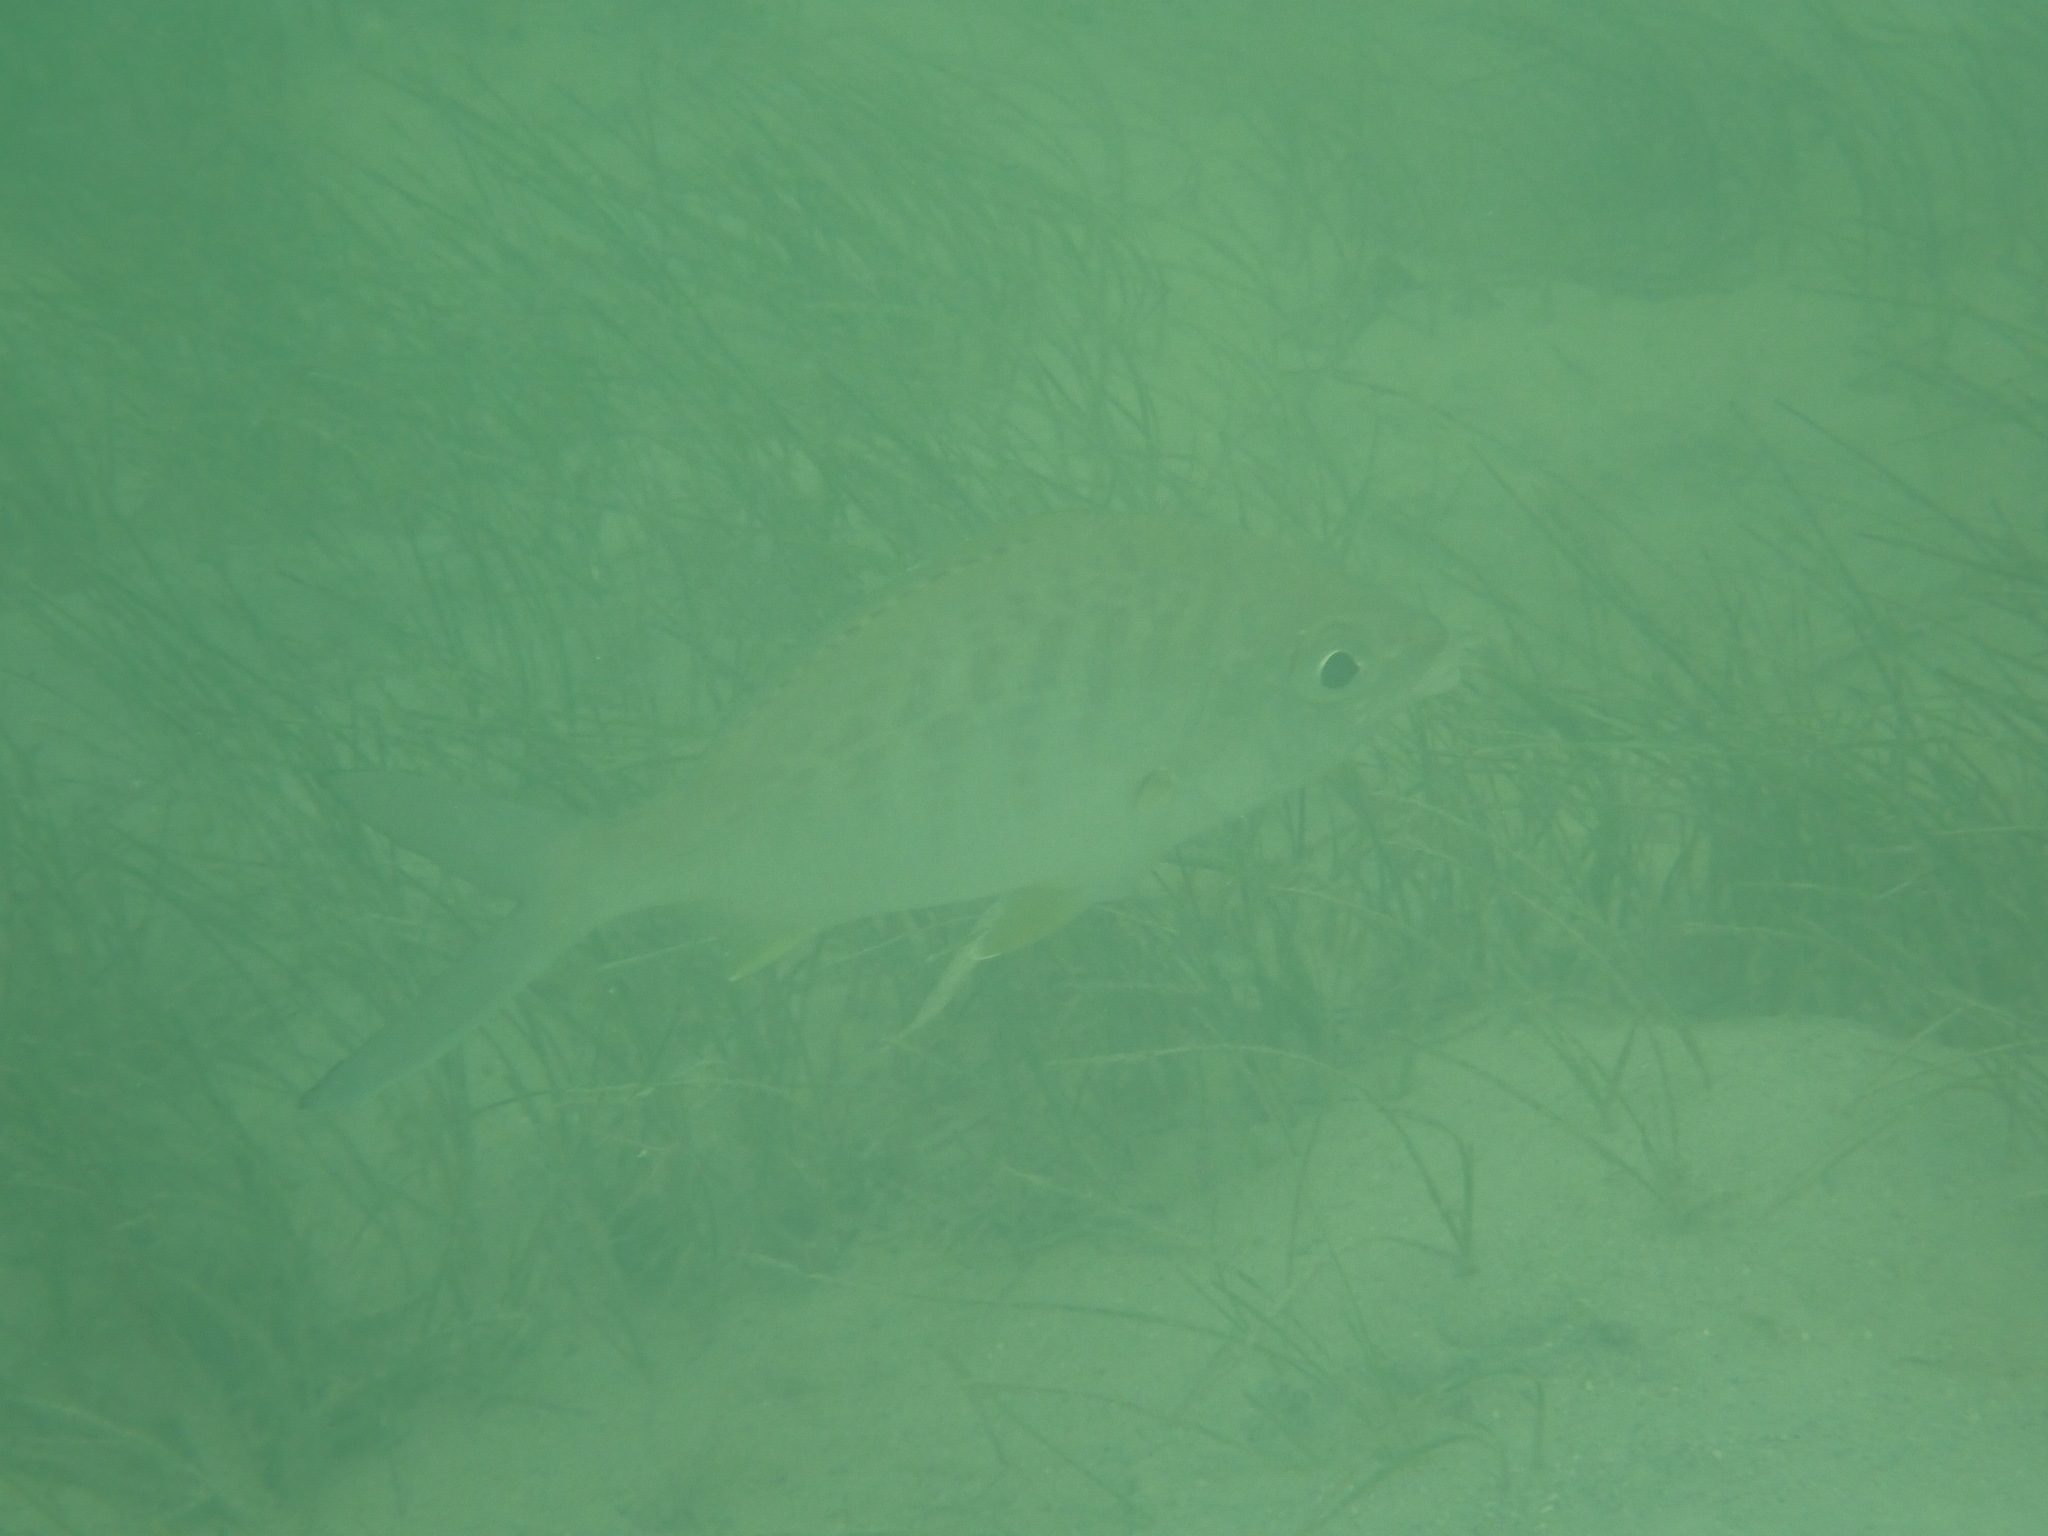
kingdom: Animalia
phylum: Chordata
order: Perciformes
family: Gerreidae
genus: Gerres
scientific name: Gerres cinereus
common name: Hedow
